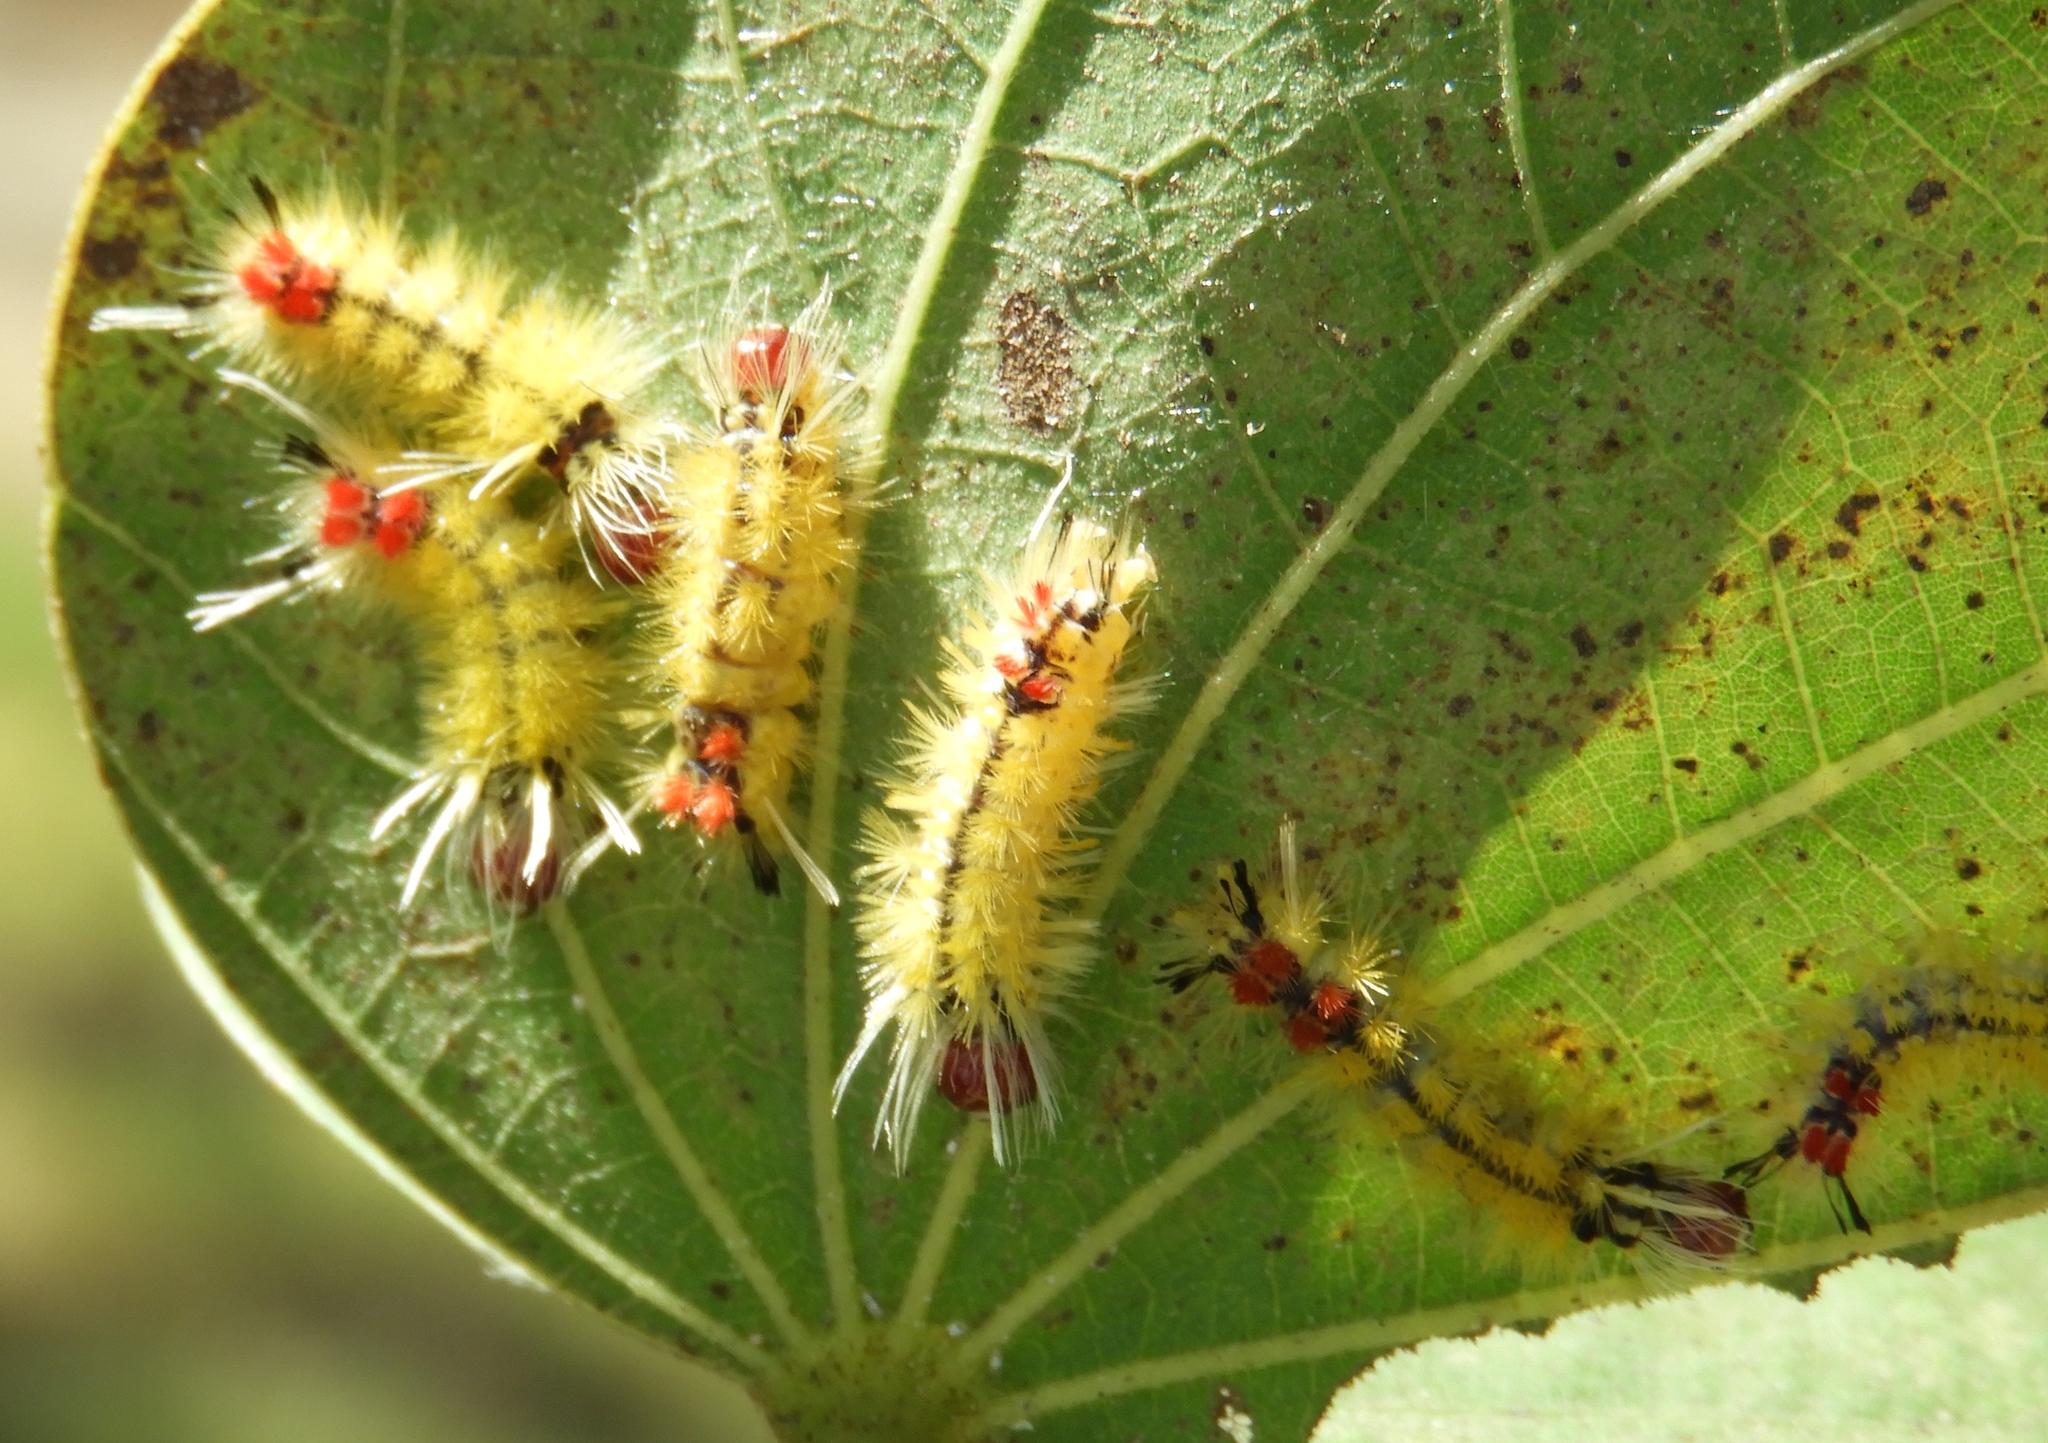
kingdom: Animalia
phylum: Arthropoda
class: Insecta
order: Lepidoptera
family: Erebidae
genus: Lophocampa
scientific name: Lophocampa
